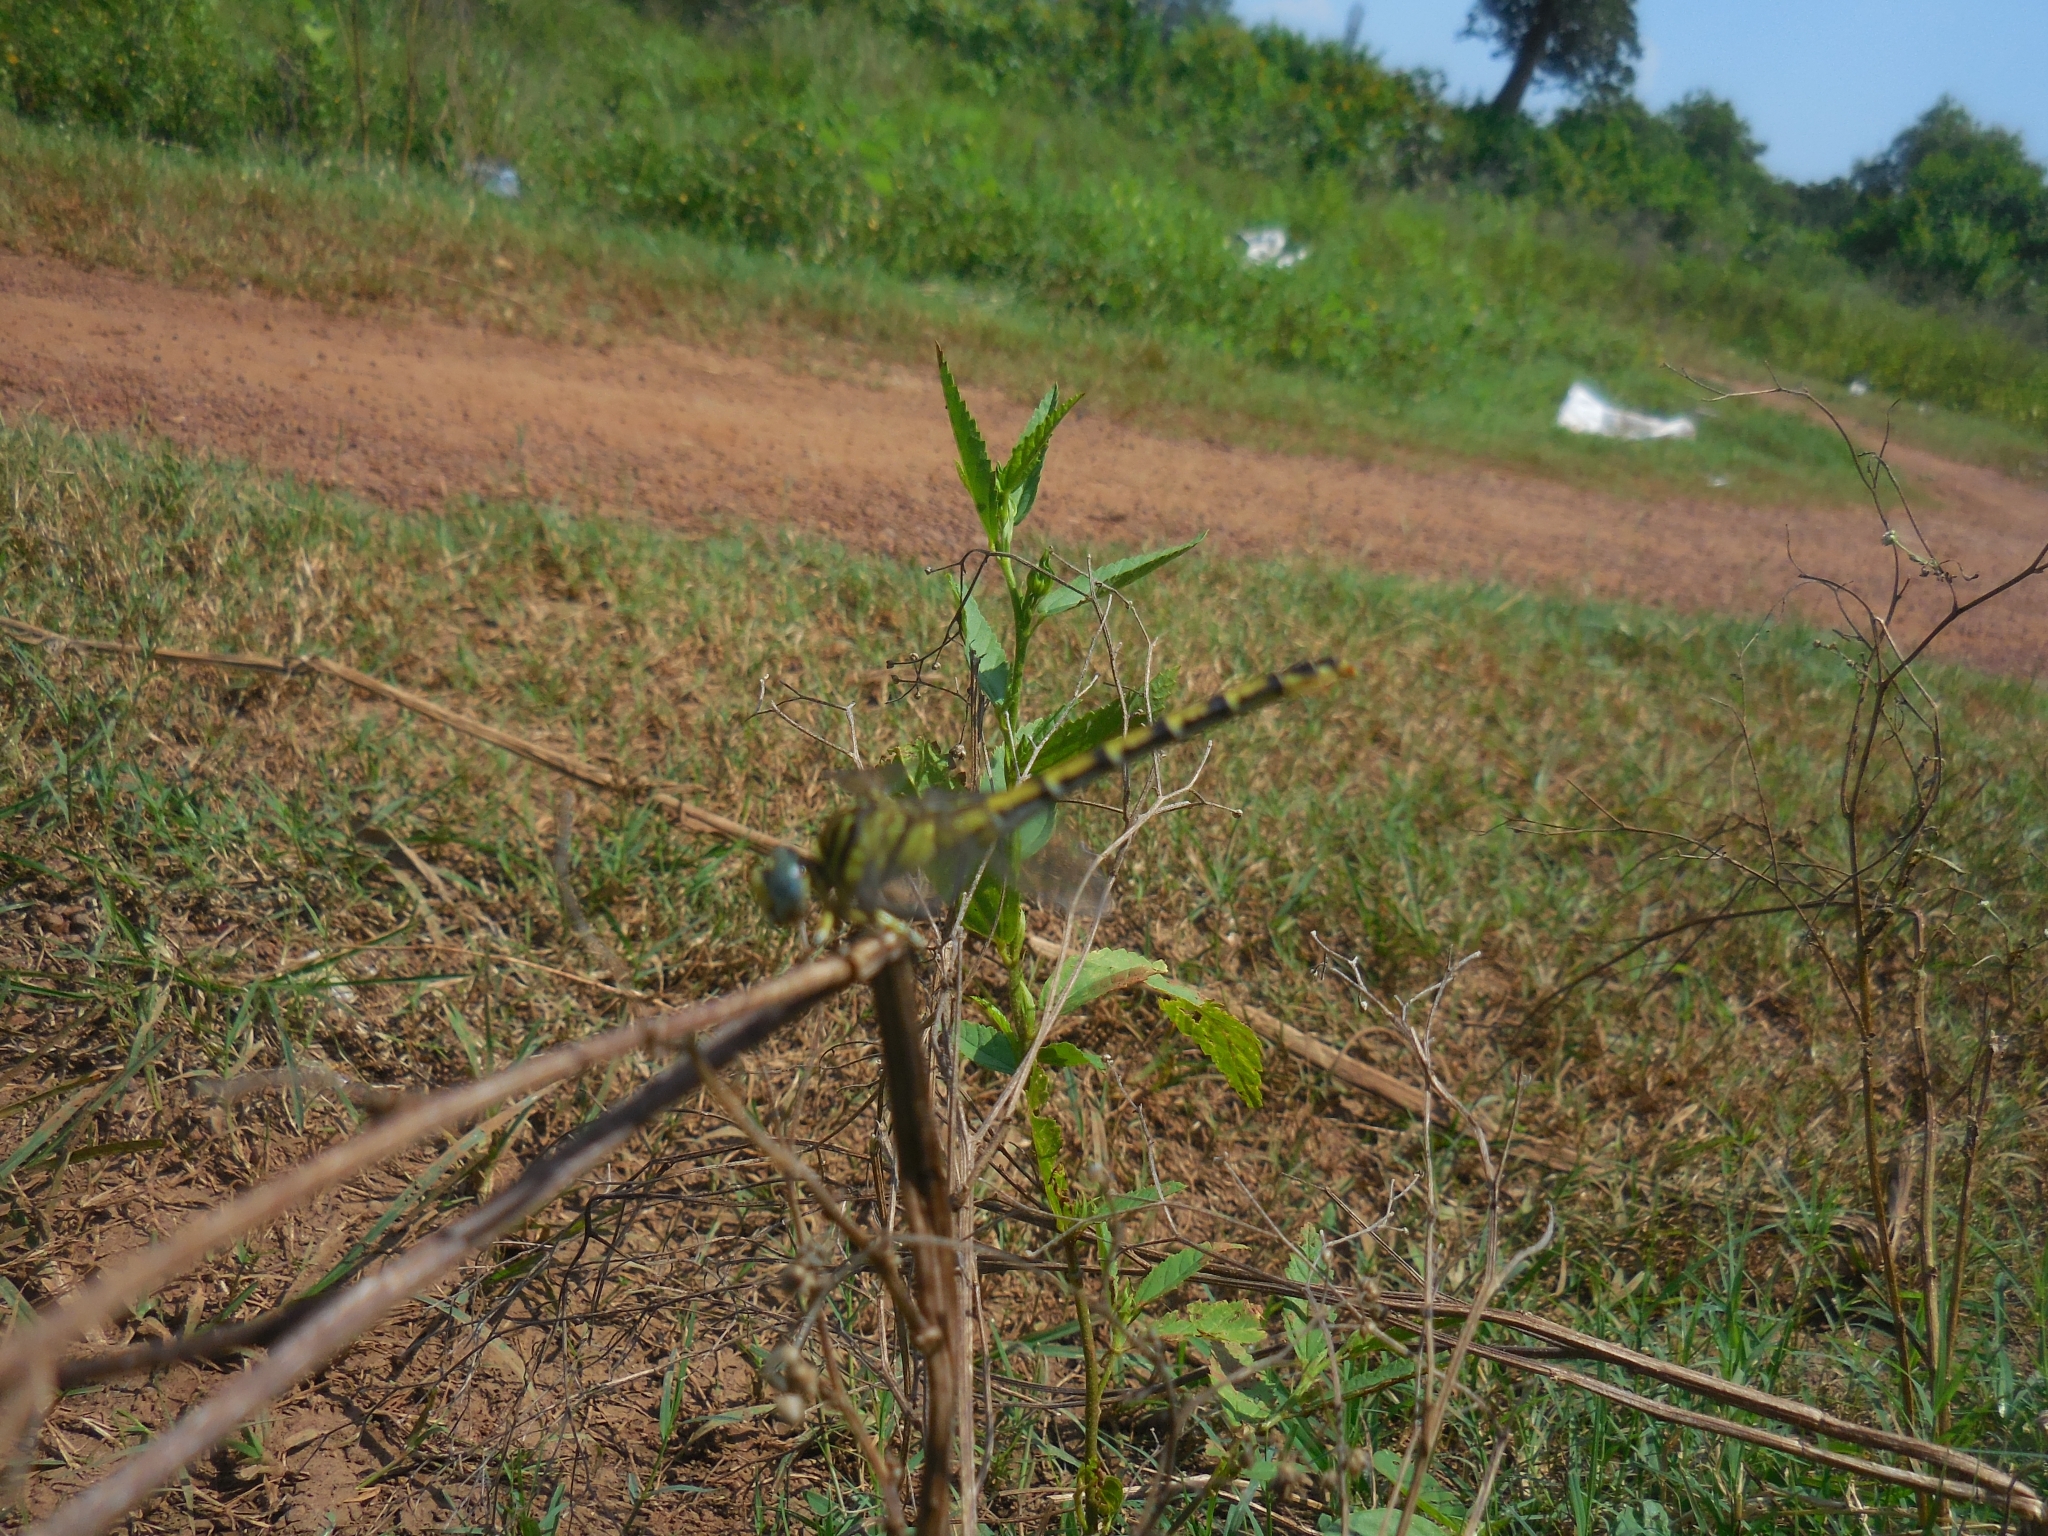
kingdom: Animalia
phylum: Arthropoda
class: Insecta
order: Odonata
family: Gomphidae
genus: Paragomphus
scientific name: Paragomphus lineatus
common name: Lined hooktail
